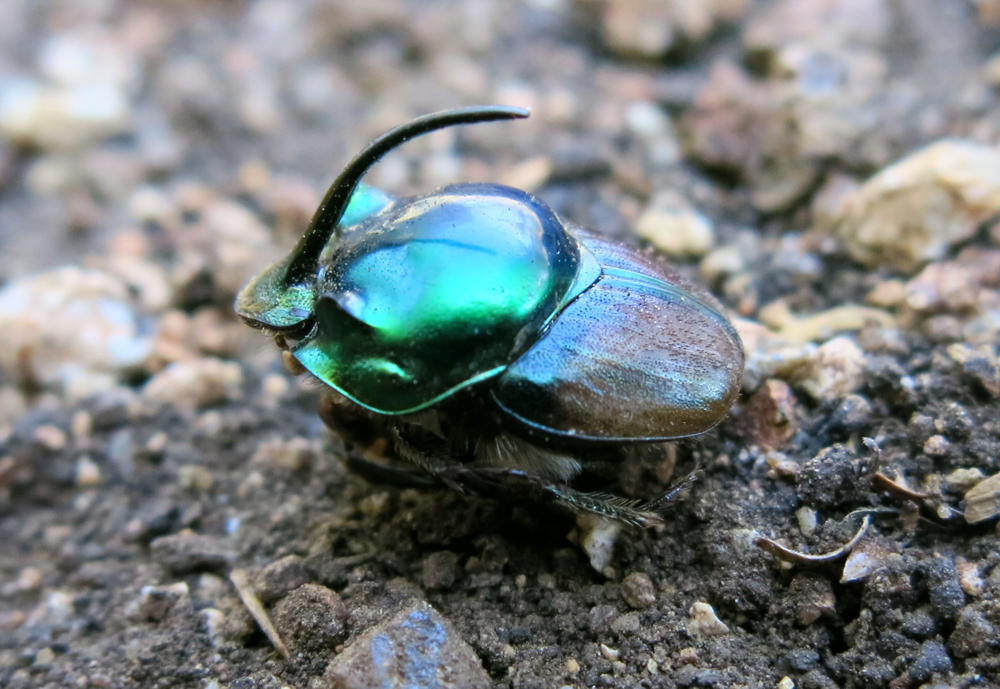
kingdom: Animalia
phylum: Arthropoda
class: Insecta
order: Coleoptera
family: Scarabaeidae
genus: Proagoderus
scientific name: Proagoderus tersidorsis
